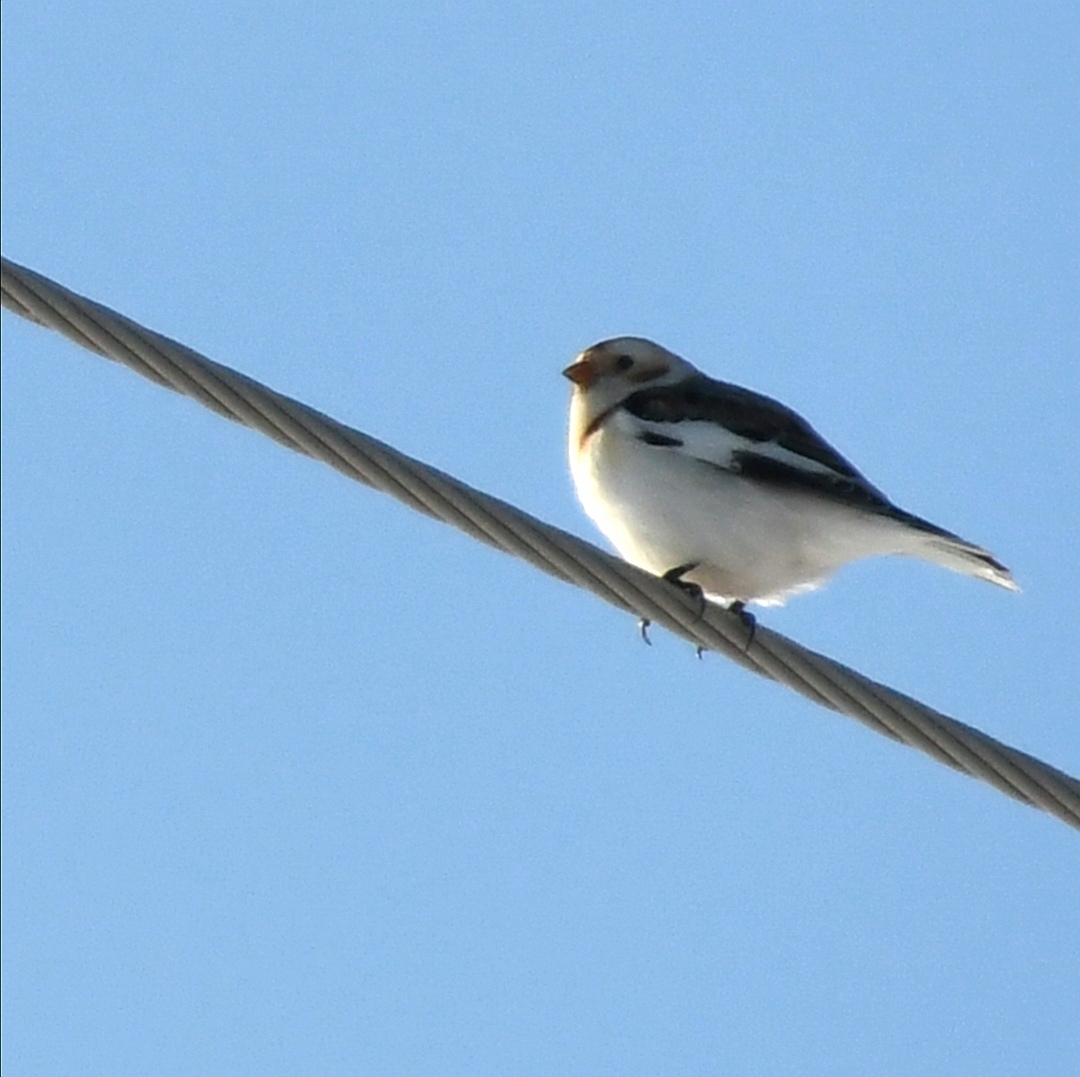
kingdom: Animalia
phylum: Chordata
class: Aves
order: Passeriformes
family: Calcariidae
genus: Plectrophenax
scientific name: Plectrophenax nivalis
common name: Snow bunting
